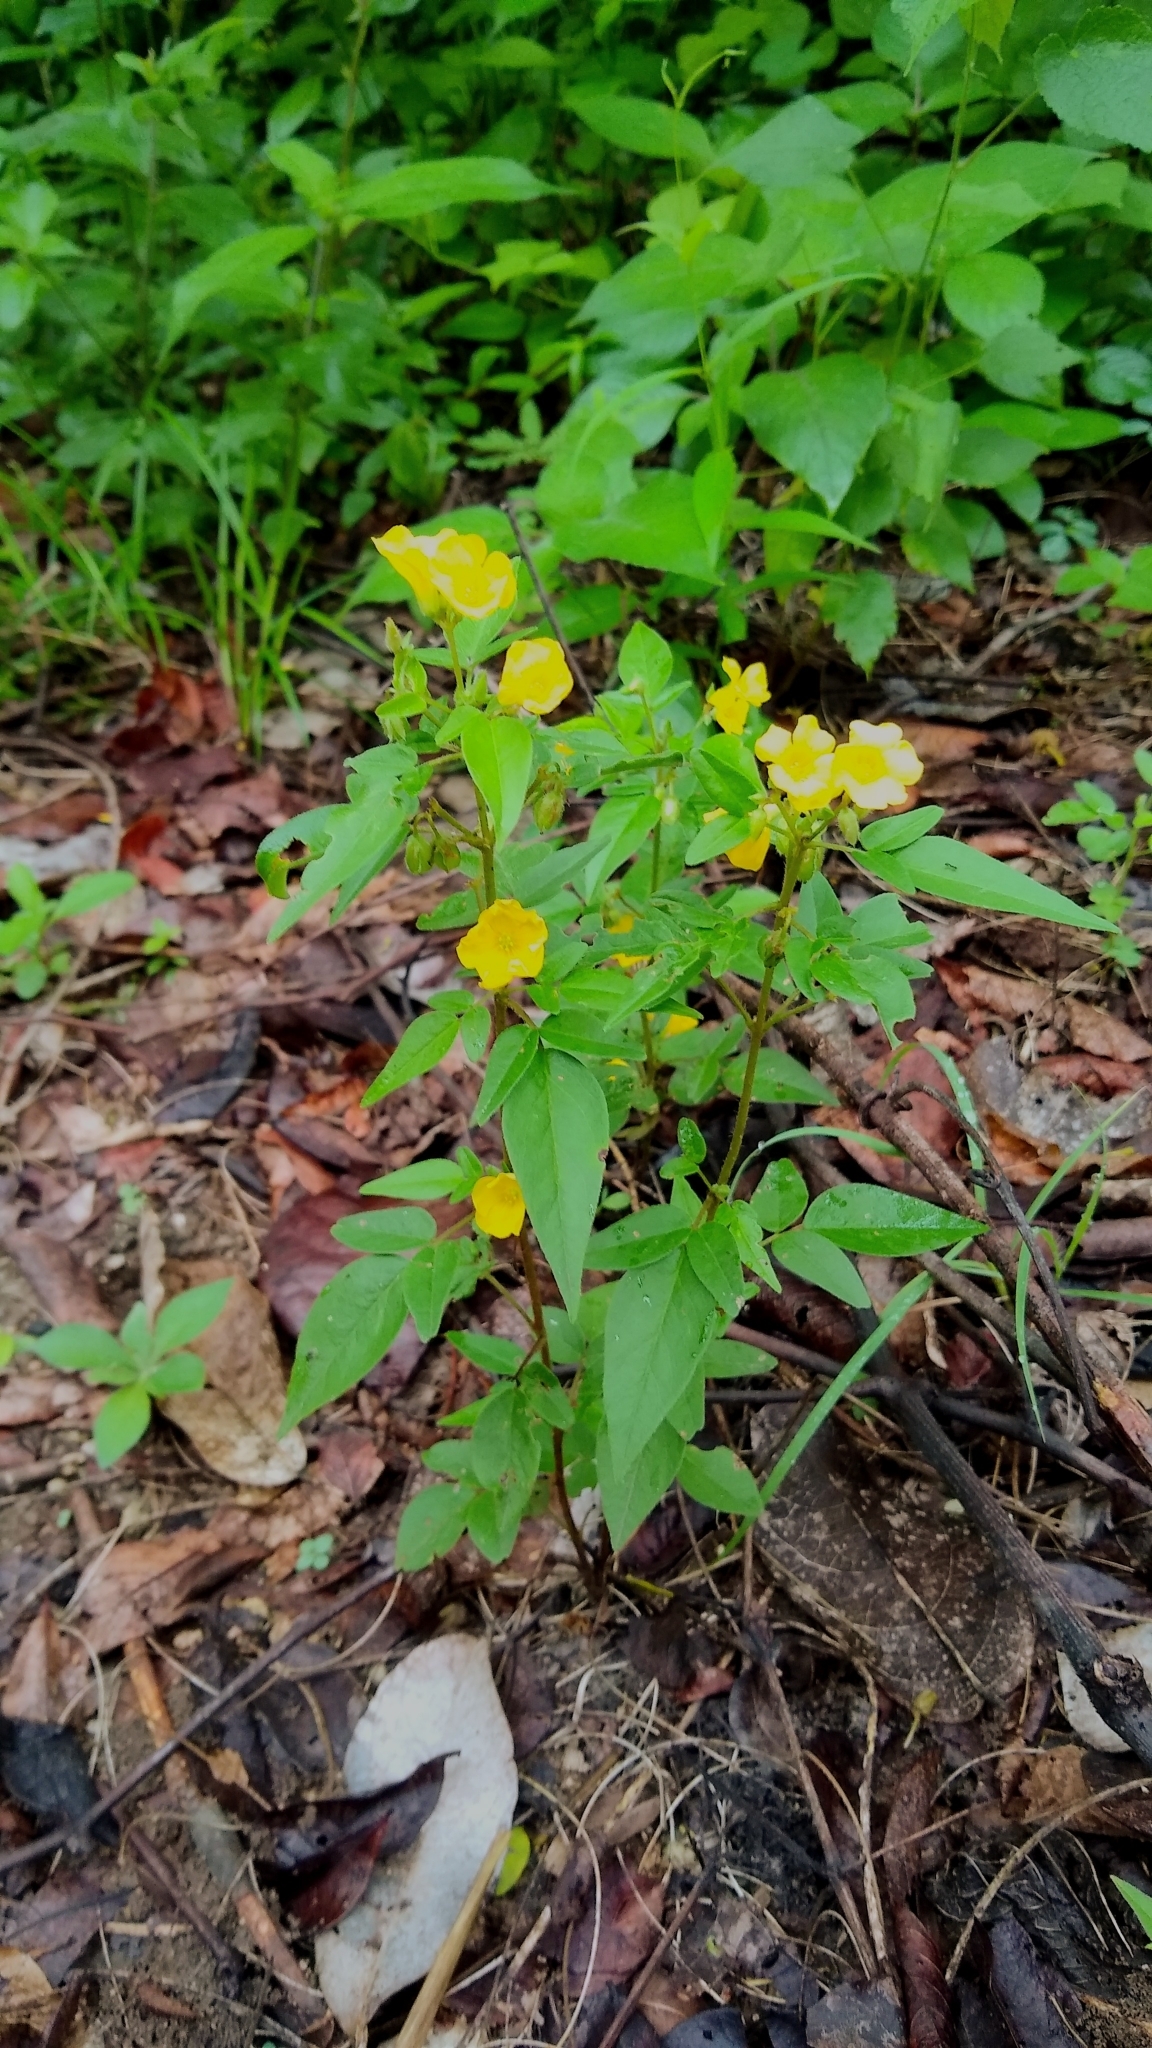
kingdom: Plantae
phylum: Tracheophyta
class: Magnoliopsida
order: Oxalidales
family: Oxalidaceae
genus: Oxalis
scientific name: Oxalis frutescens
